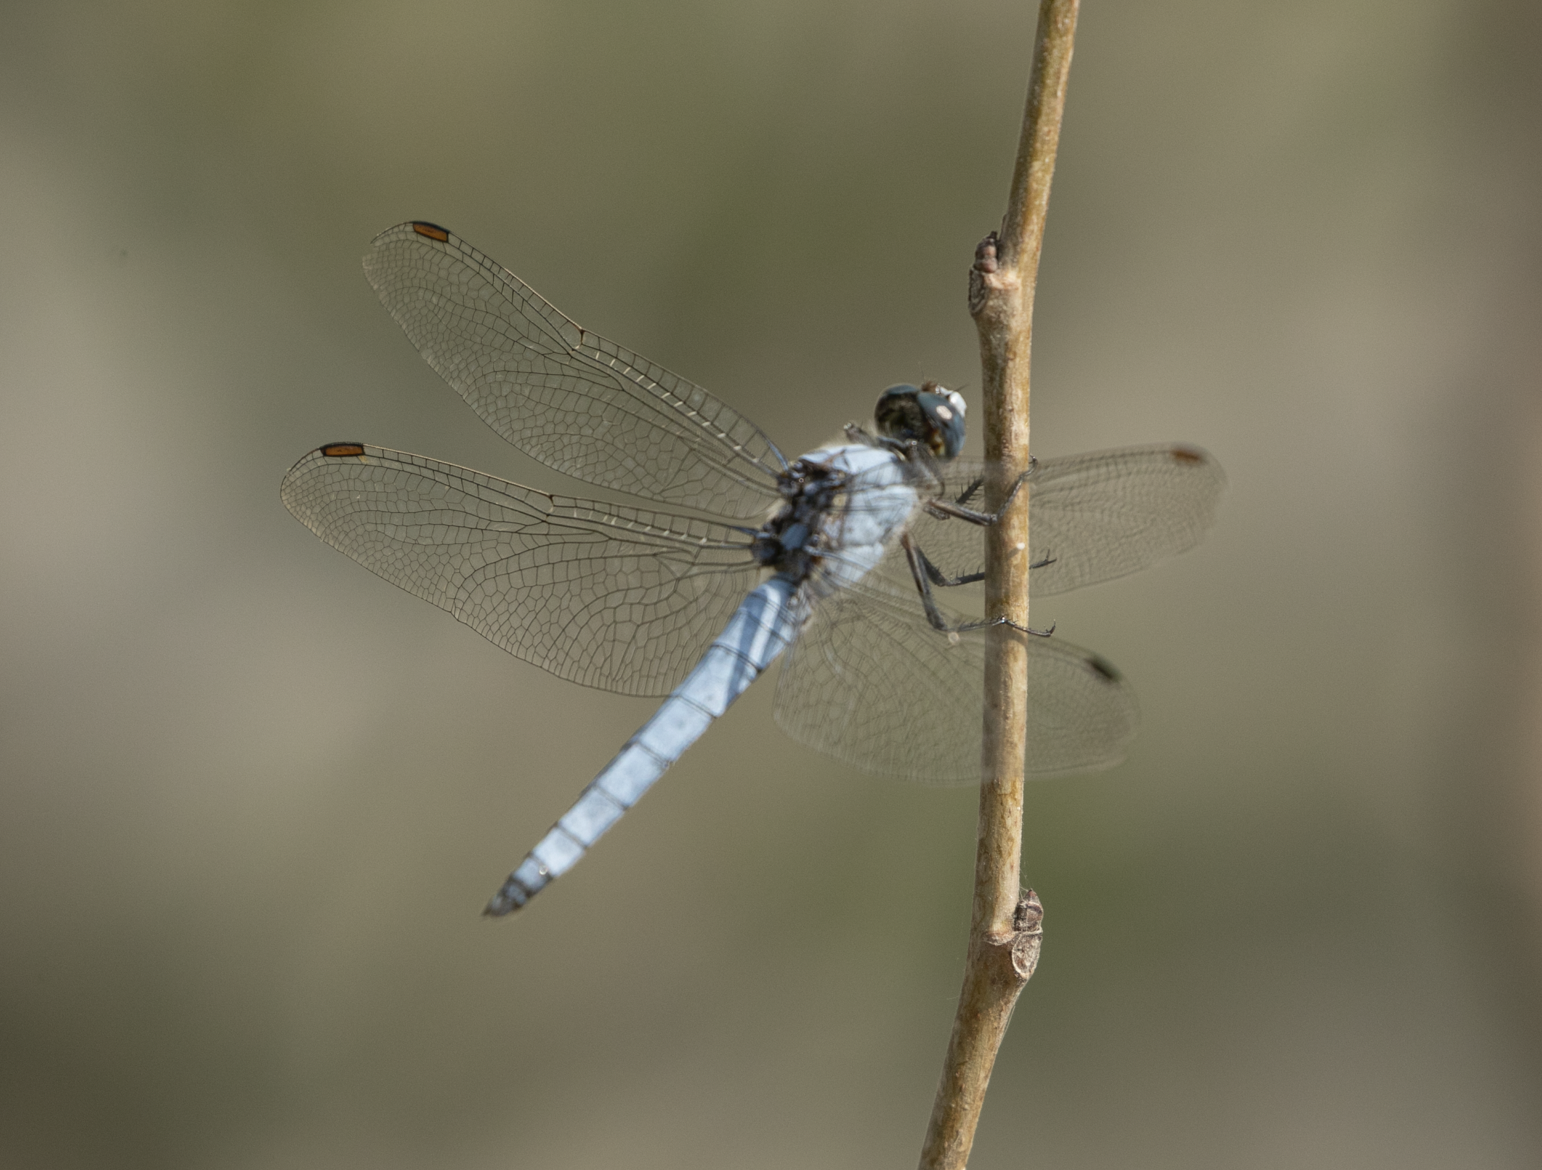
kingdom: Animalia
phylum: Arthropoda
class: Insecta
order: Odonata
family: Libellulidae
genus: Orthetrum
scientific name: Orthetrum brunneum
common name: Southern skimmer
